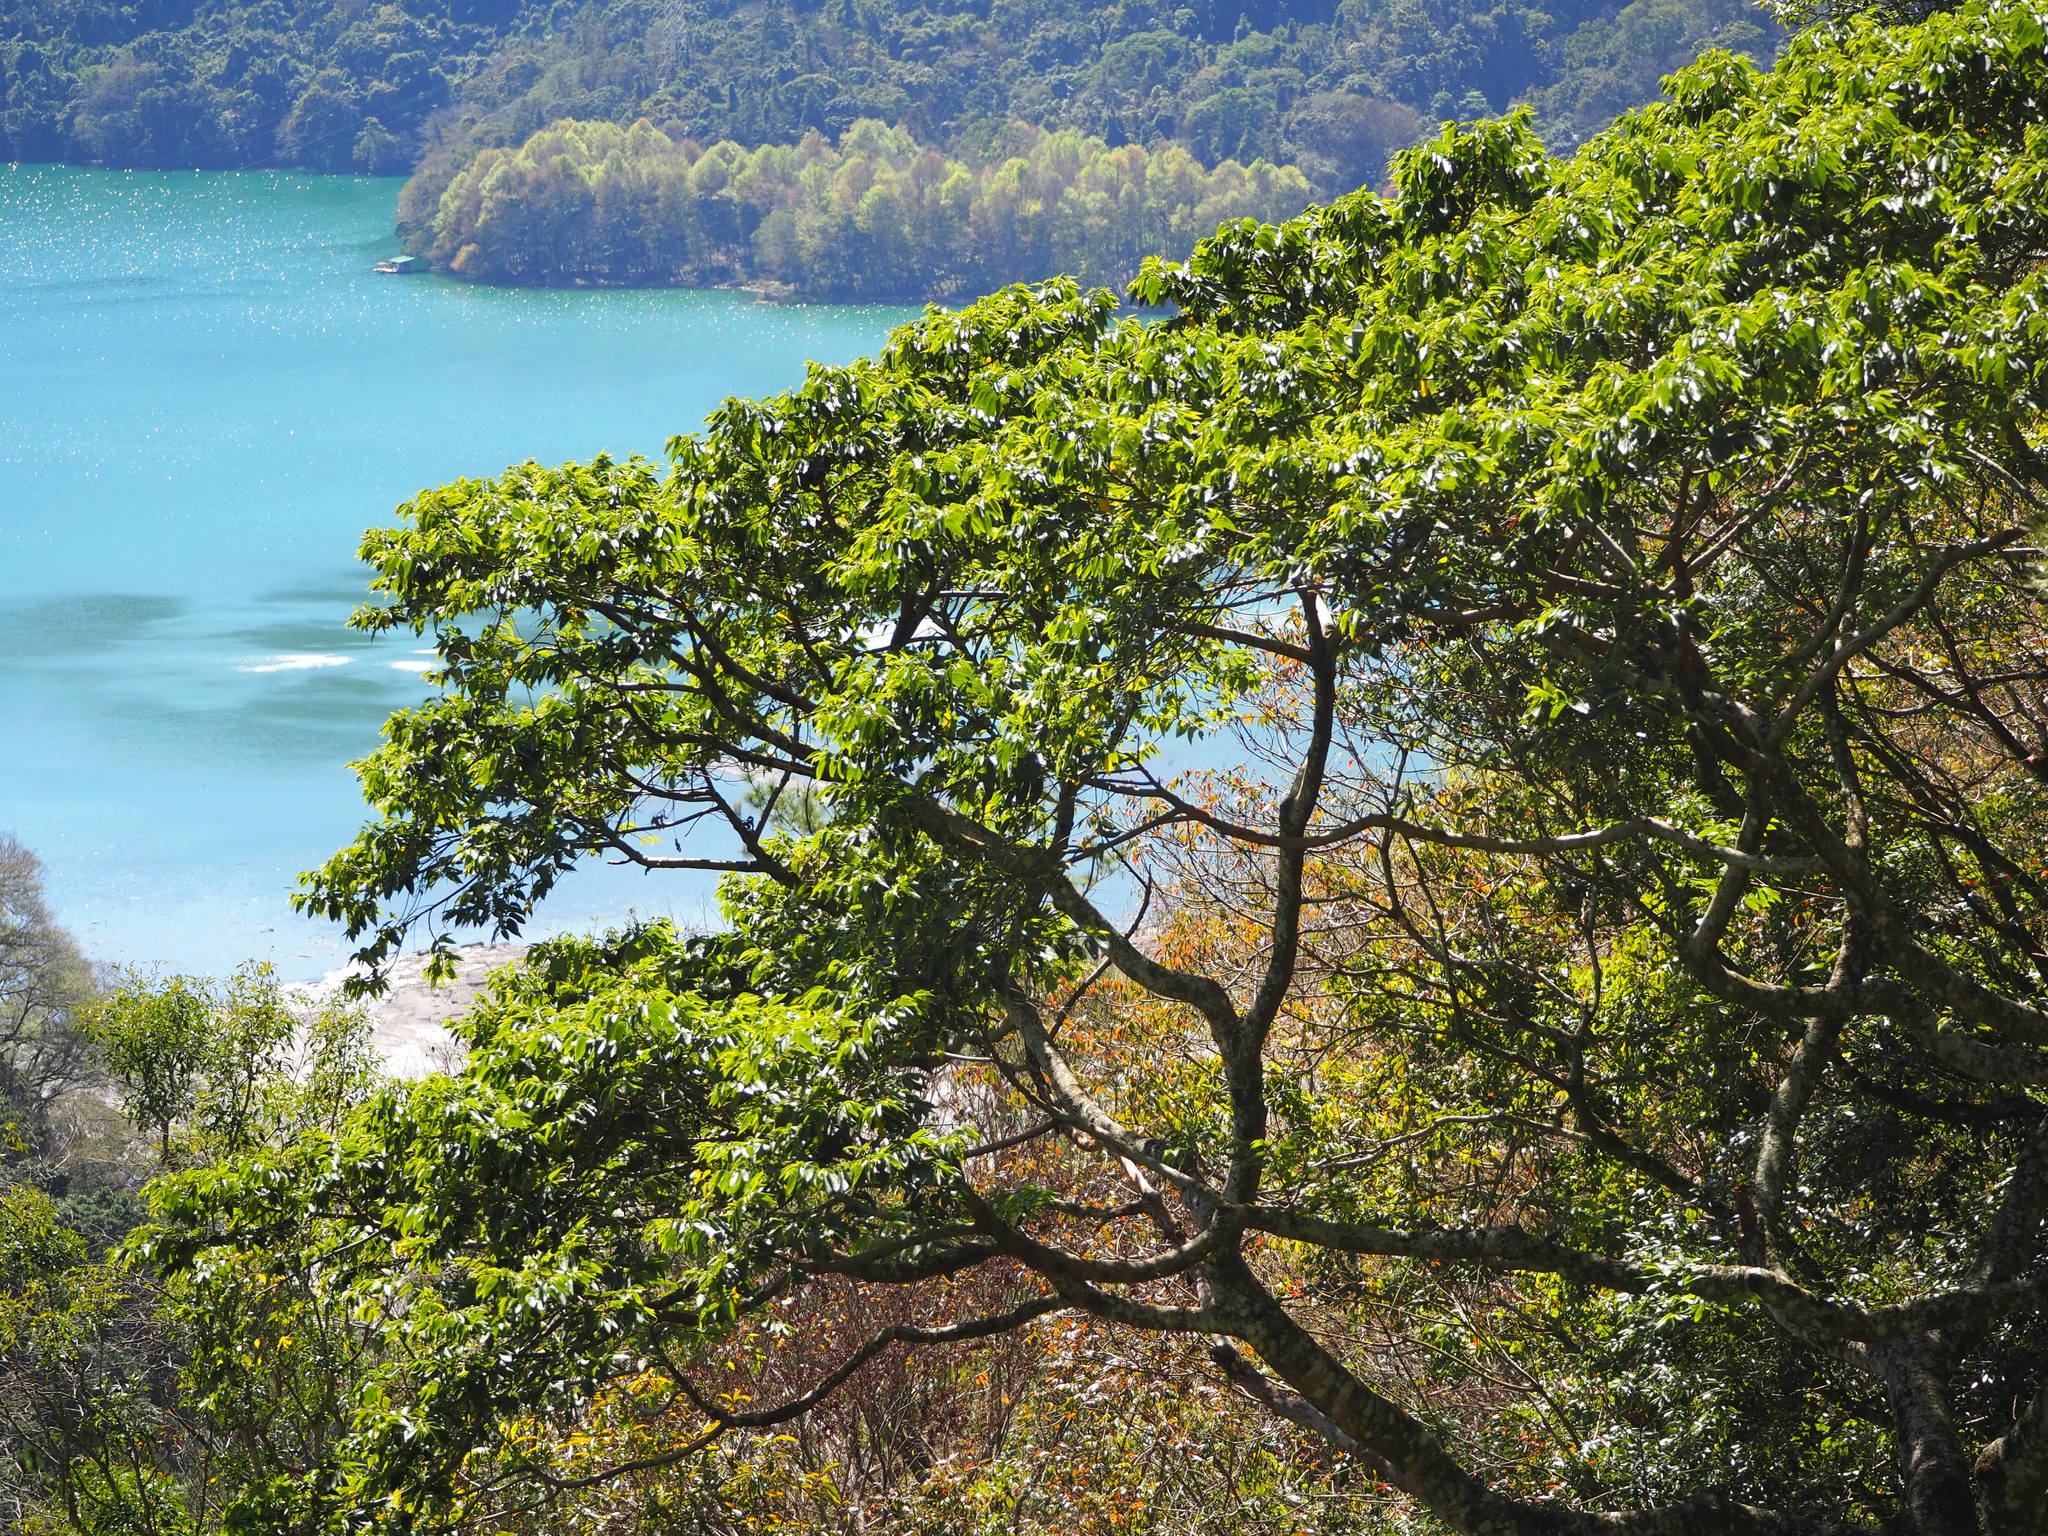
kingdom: Plantae
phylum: Tracheophyta
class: Magnoliopsida
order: Rosales
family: Cannabaceae
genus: Trema
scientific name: Trema orientale
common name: Indian charcoal tree
